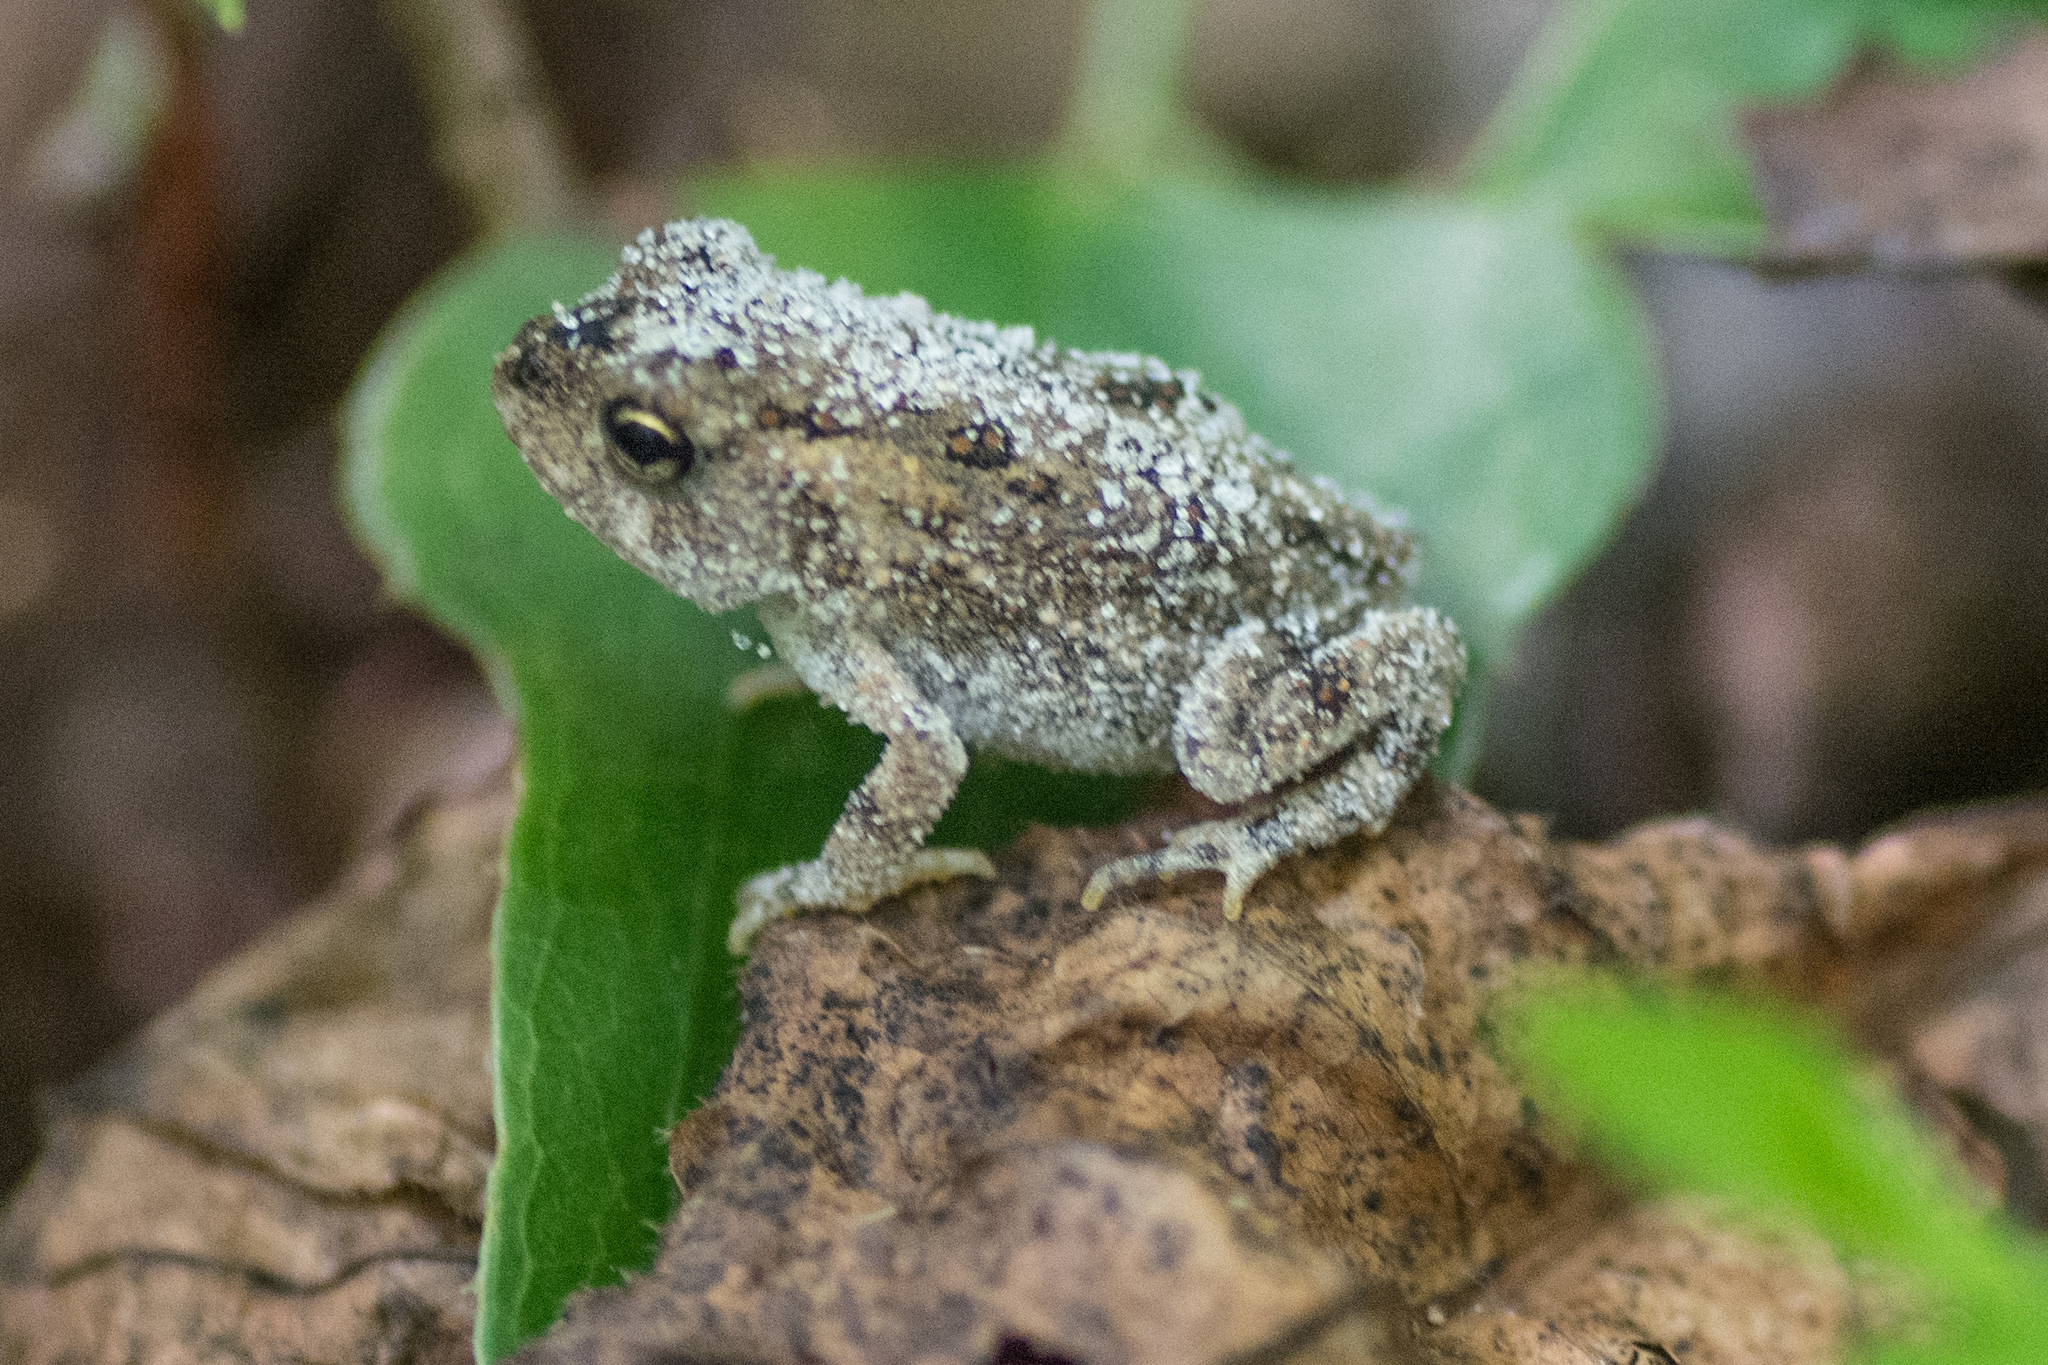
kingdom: Animalia
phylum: Chordata
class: Amphibia
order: Anura
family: Bufonidae
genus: Anaxyrus
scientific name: Anaxyrus terrestris
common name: Southern toad
